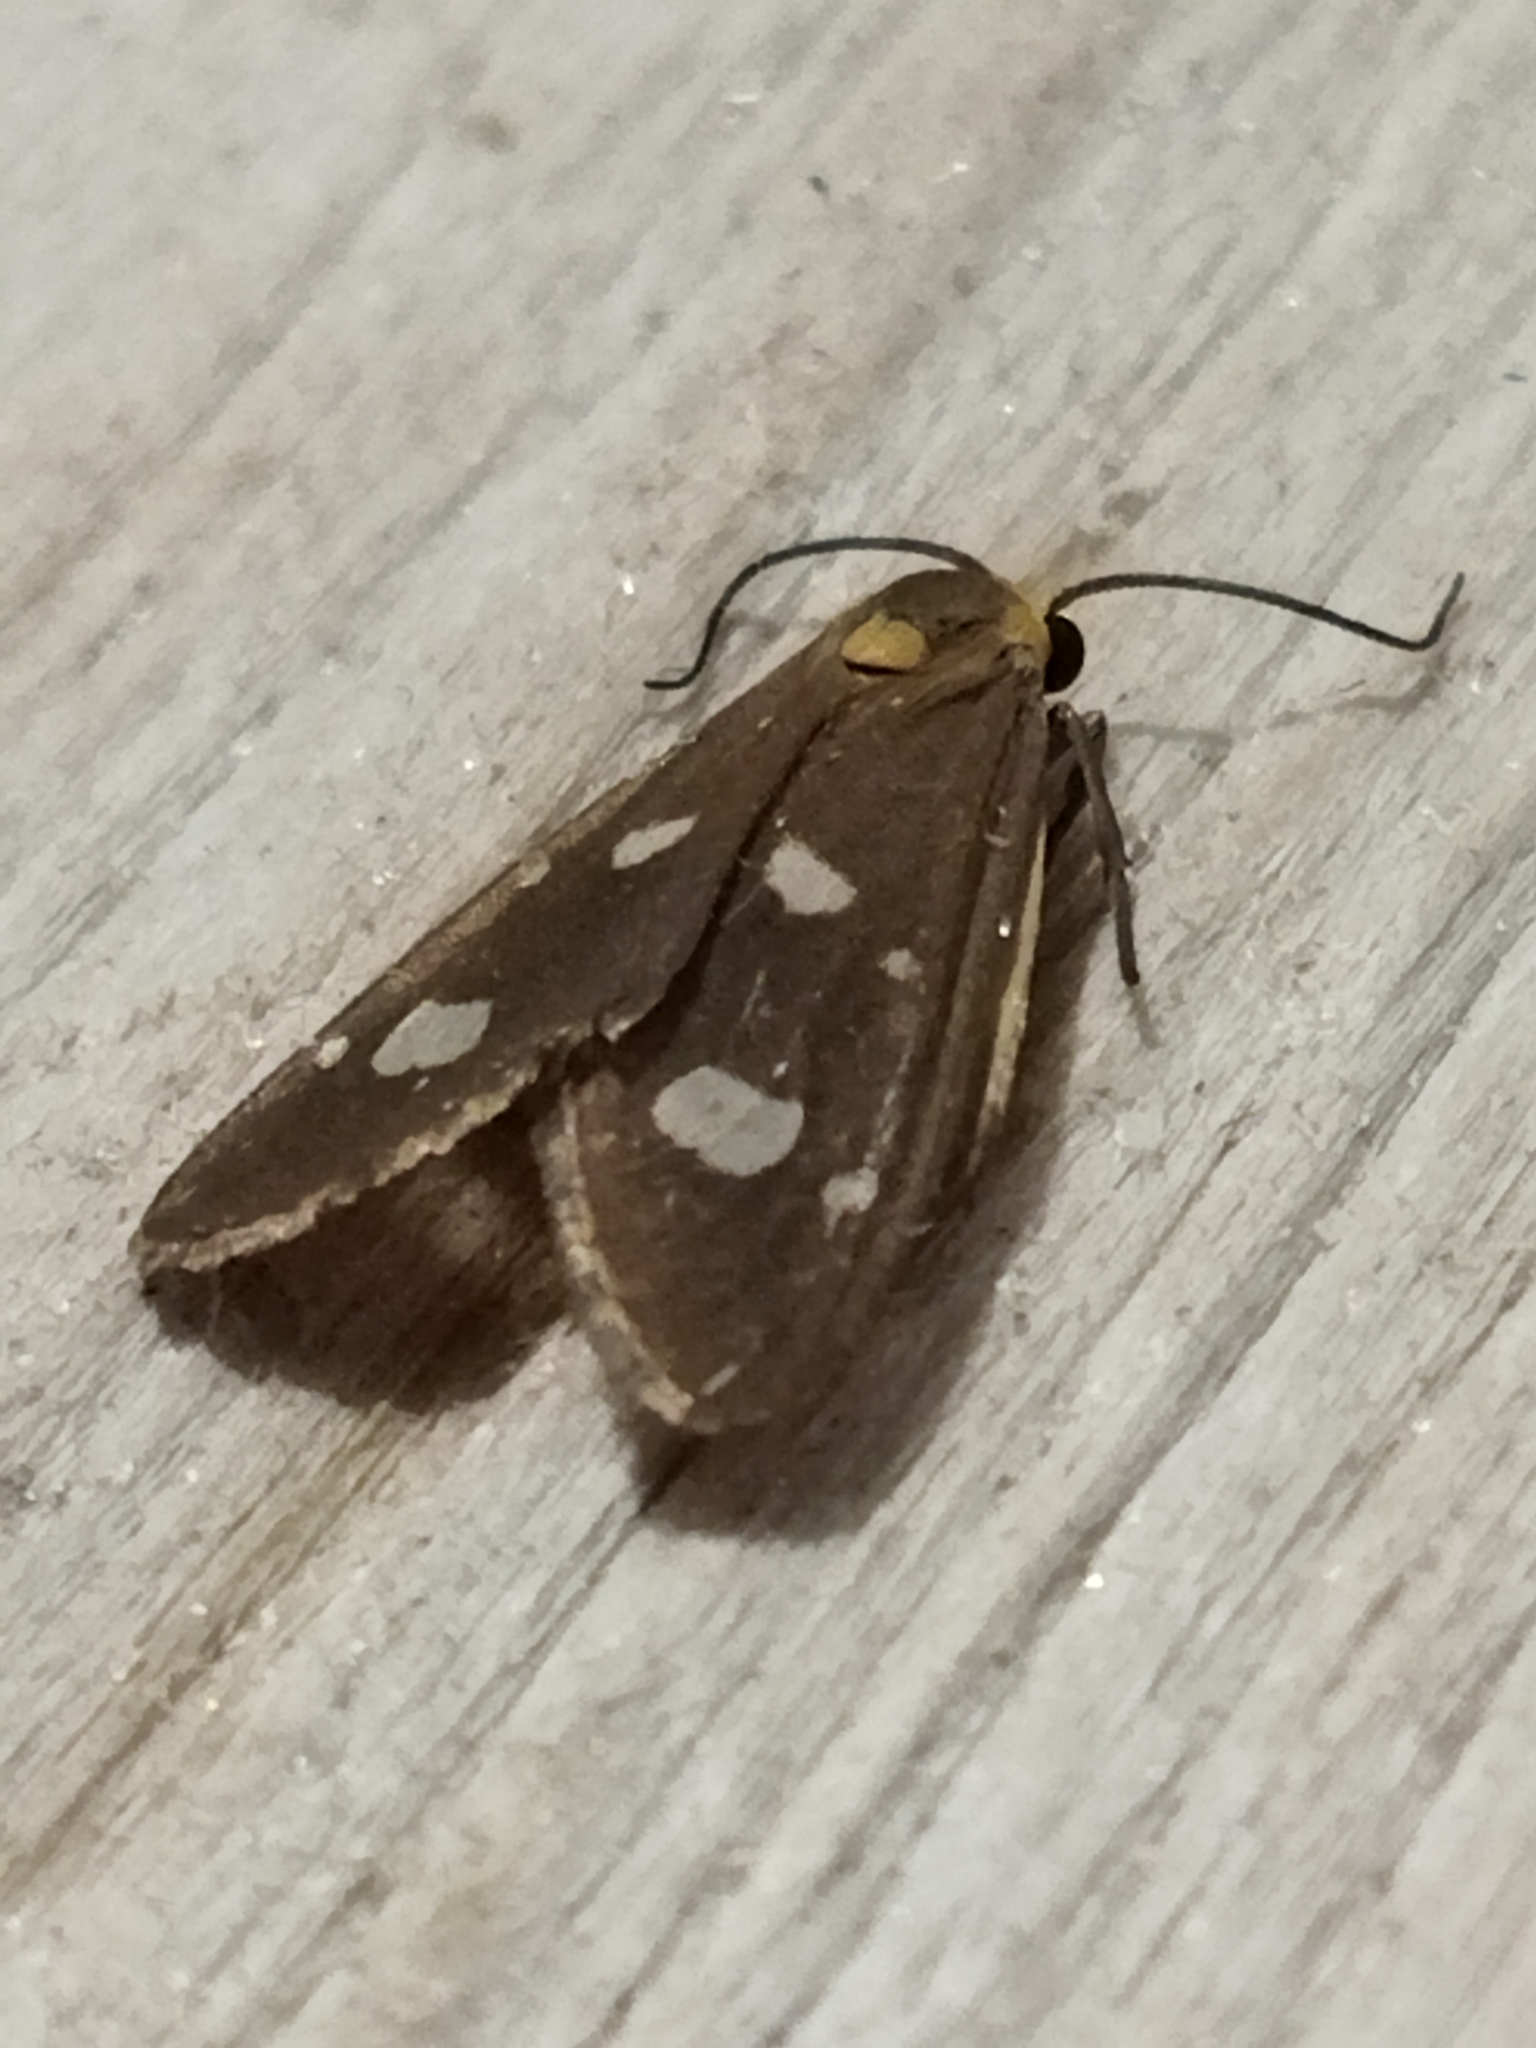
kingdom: Animalia
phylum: Arthropoda
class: Insecta
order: Lepidoptera
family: Erebidae
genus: Dysauxes
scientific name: Dysauxes punctata
